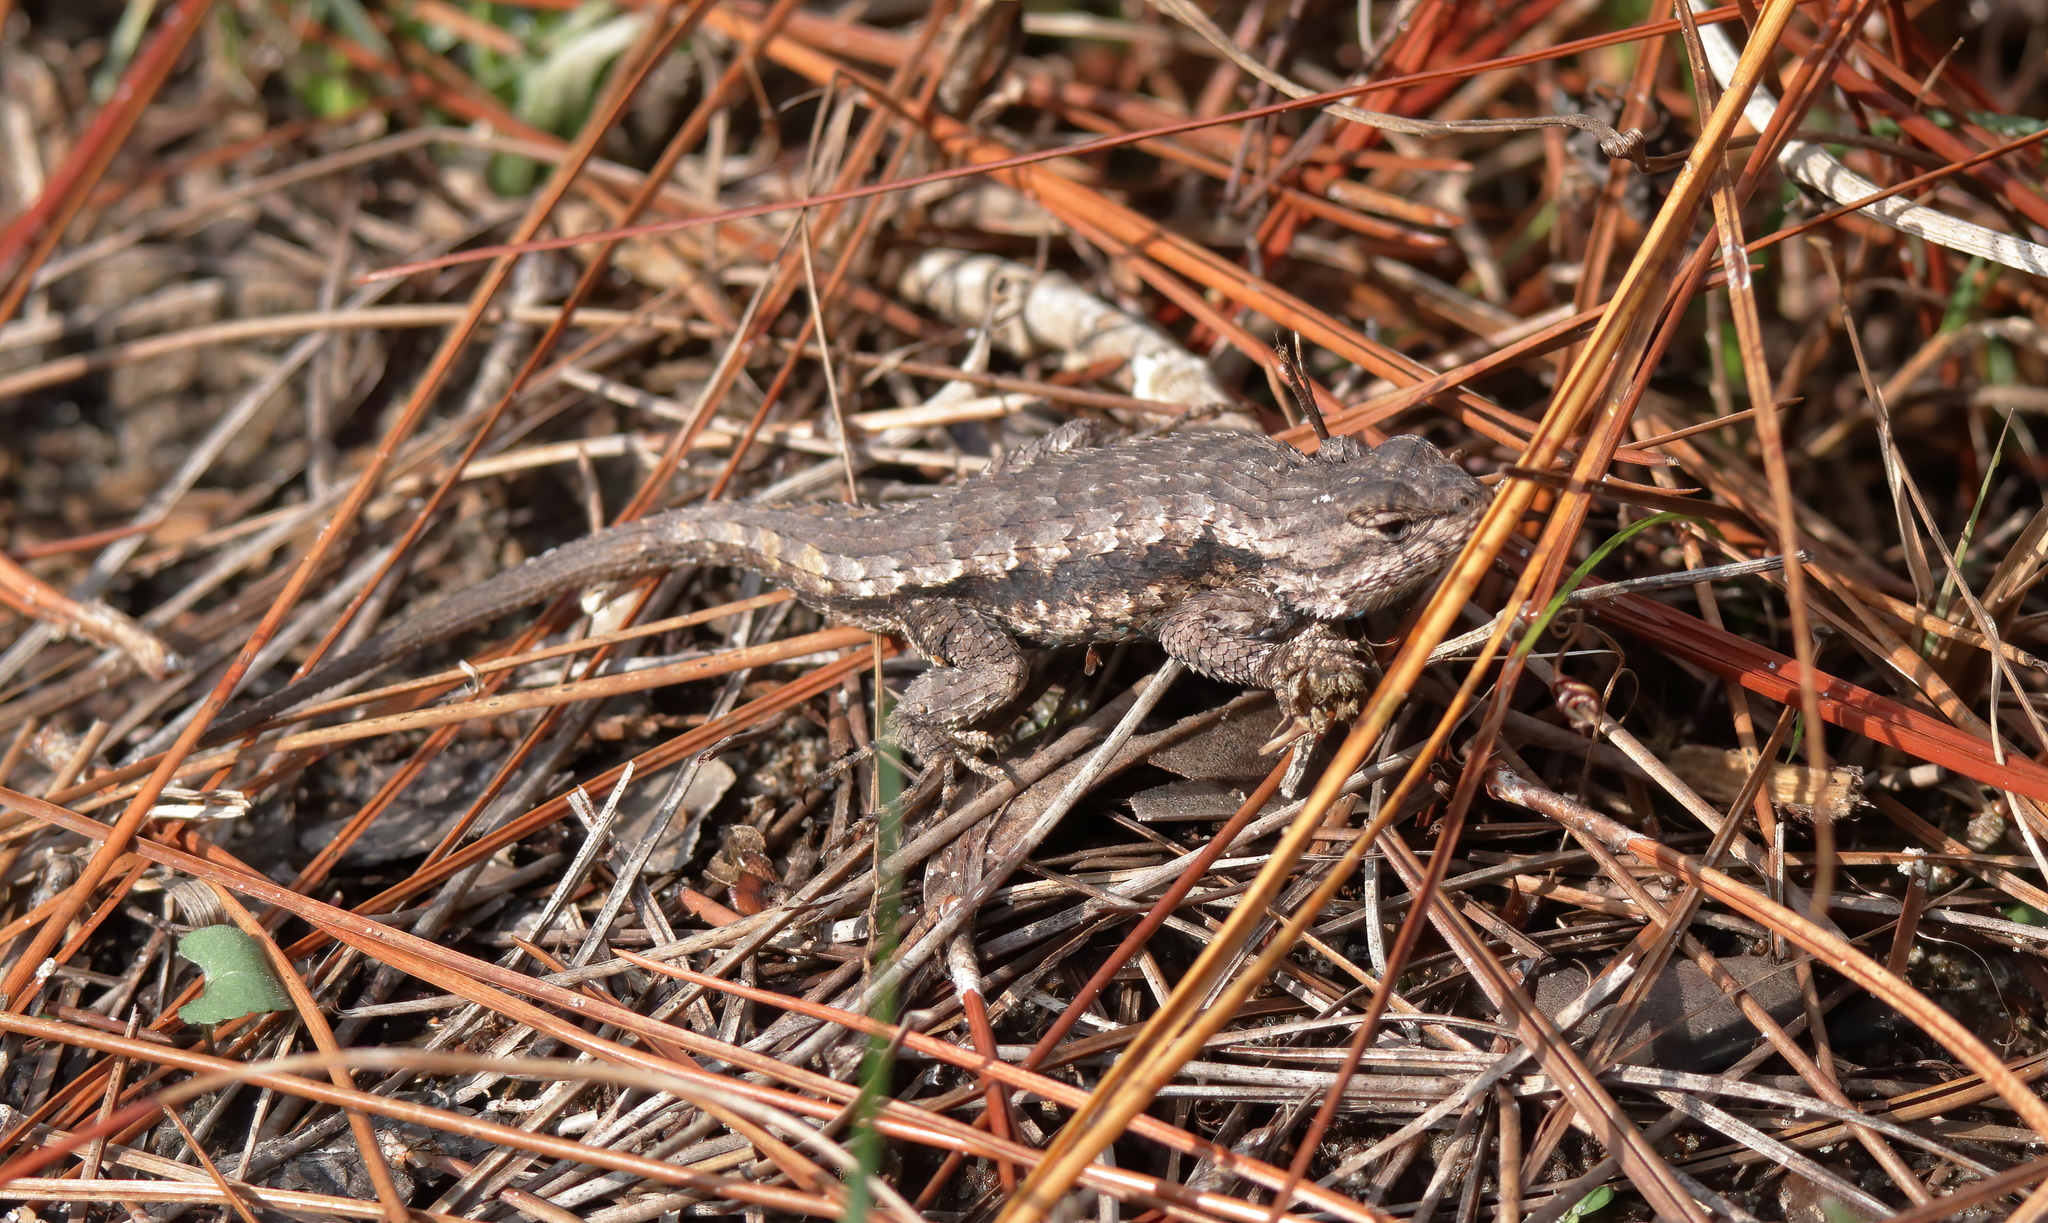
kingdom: Animalia
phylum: Chordata
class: Squamata
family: Phrynosomatidae
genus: Sceloporus
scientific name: Sceloporus undulatus
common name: Eastern fence lizard
